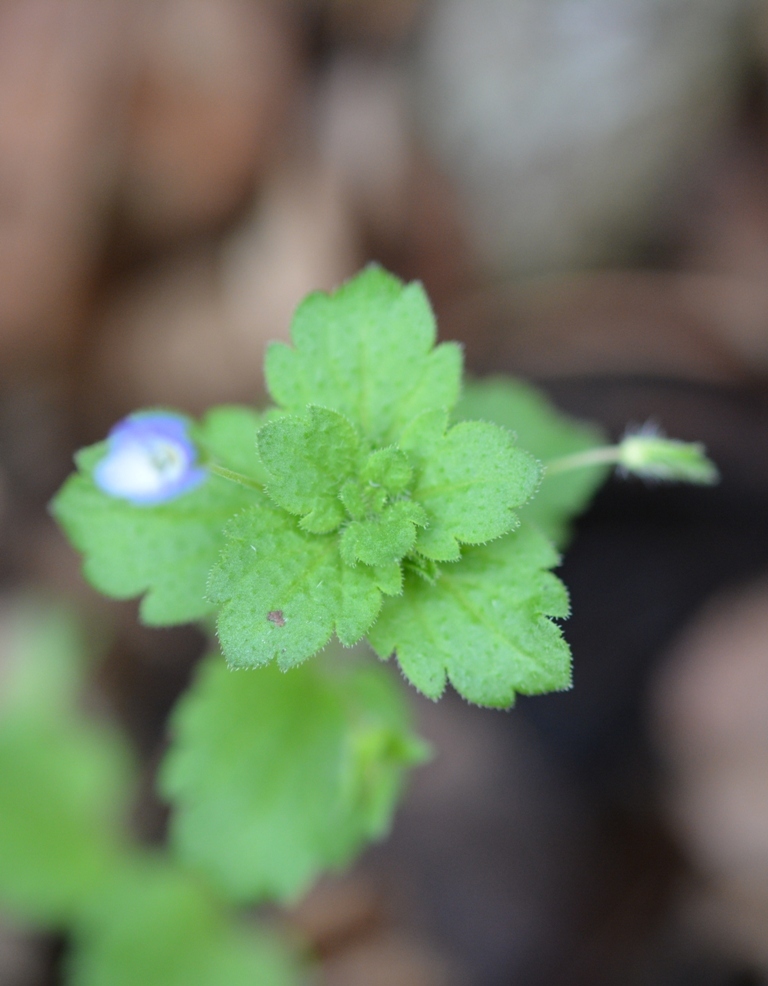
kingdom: Plantae
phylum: Tracheophyta
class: Magnoliopsida
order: Lamiales
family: Plantaginaceae
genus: Veronica
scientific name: Veronica persica
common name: Common field-speedwell
